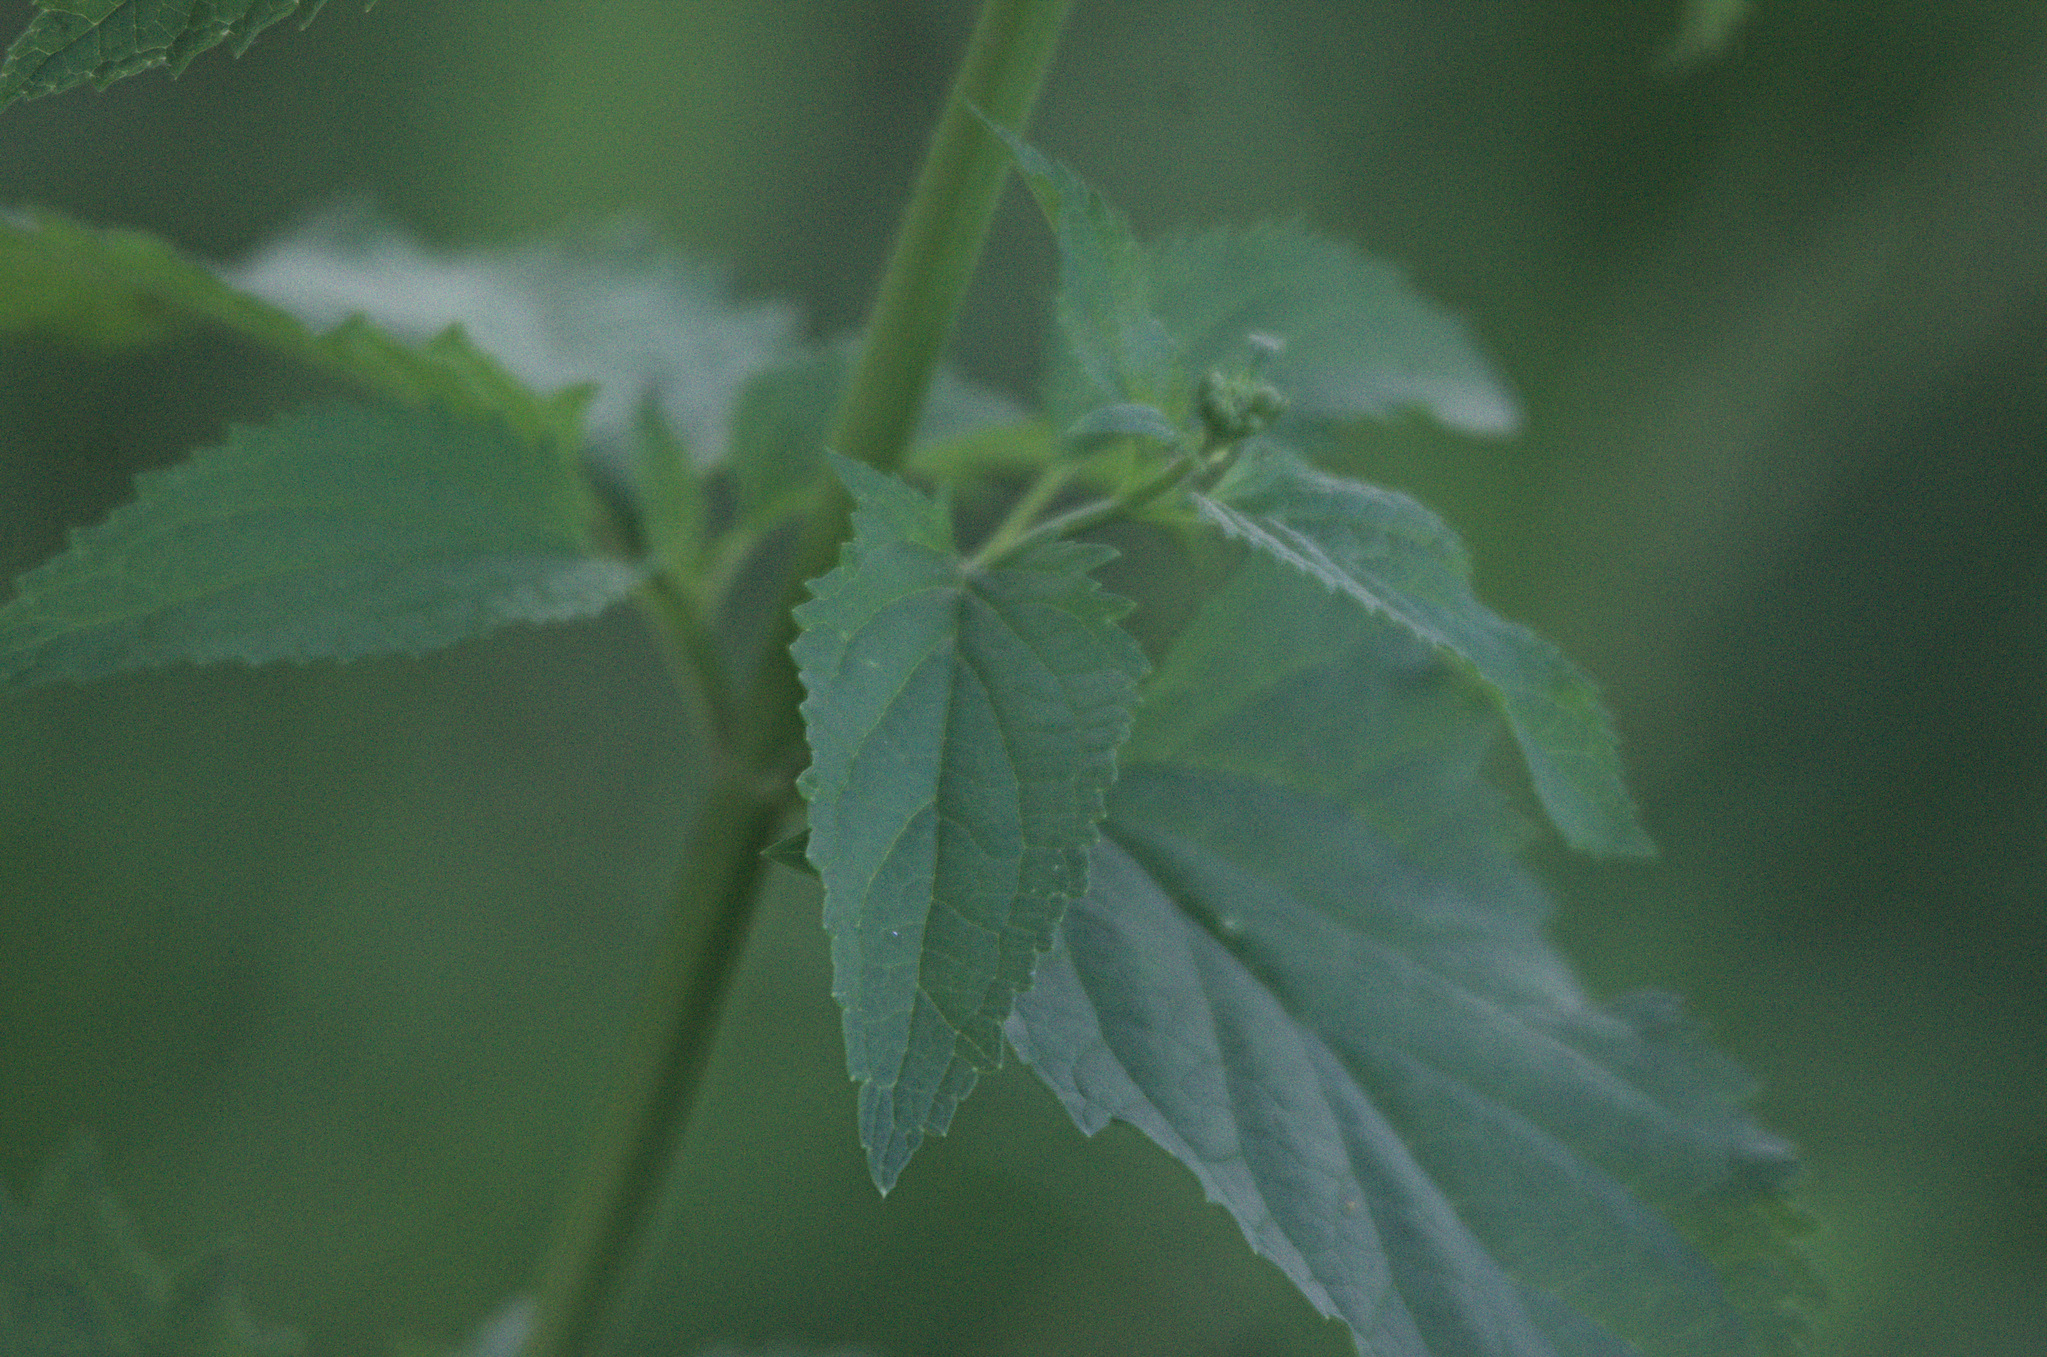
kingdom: Plantae
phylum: Tracheophyta
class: Magnoliopsida
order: Lamiales
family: Scrophulariaceae
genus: Scrophularia
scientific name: Scrophularia nodosa
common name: Common figwort
